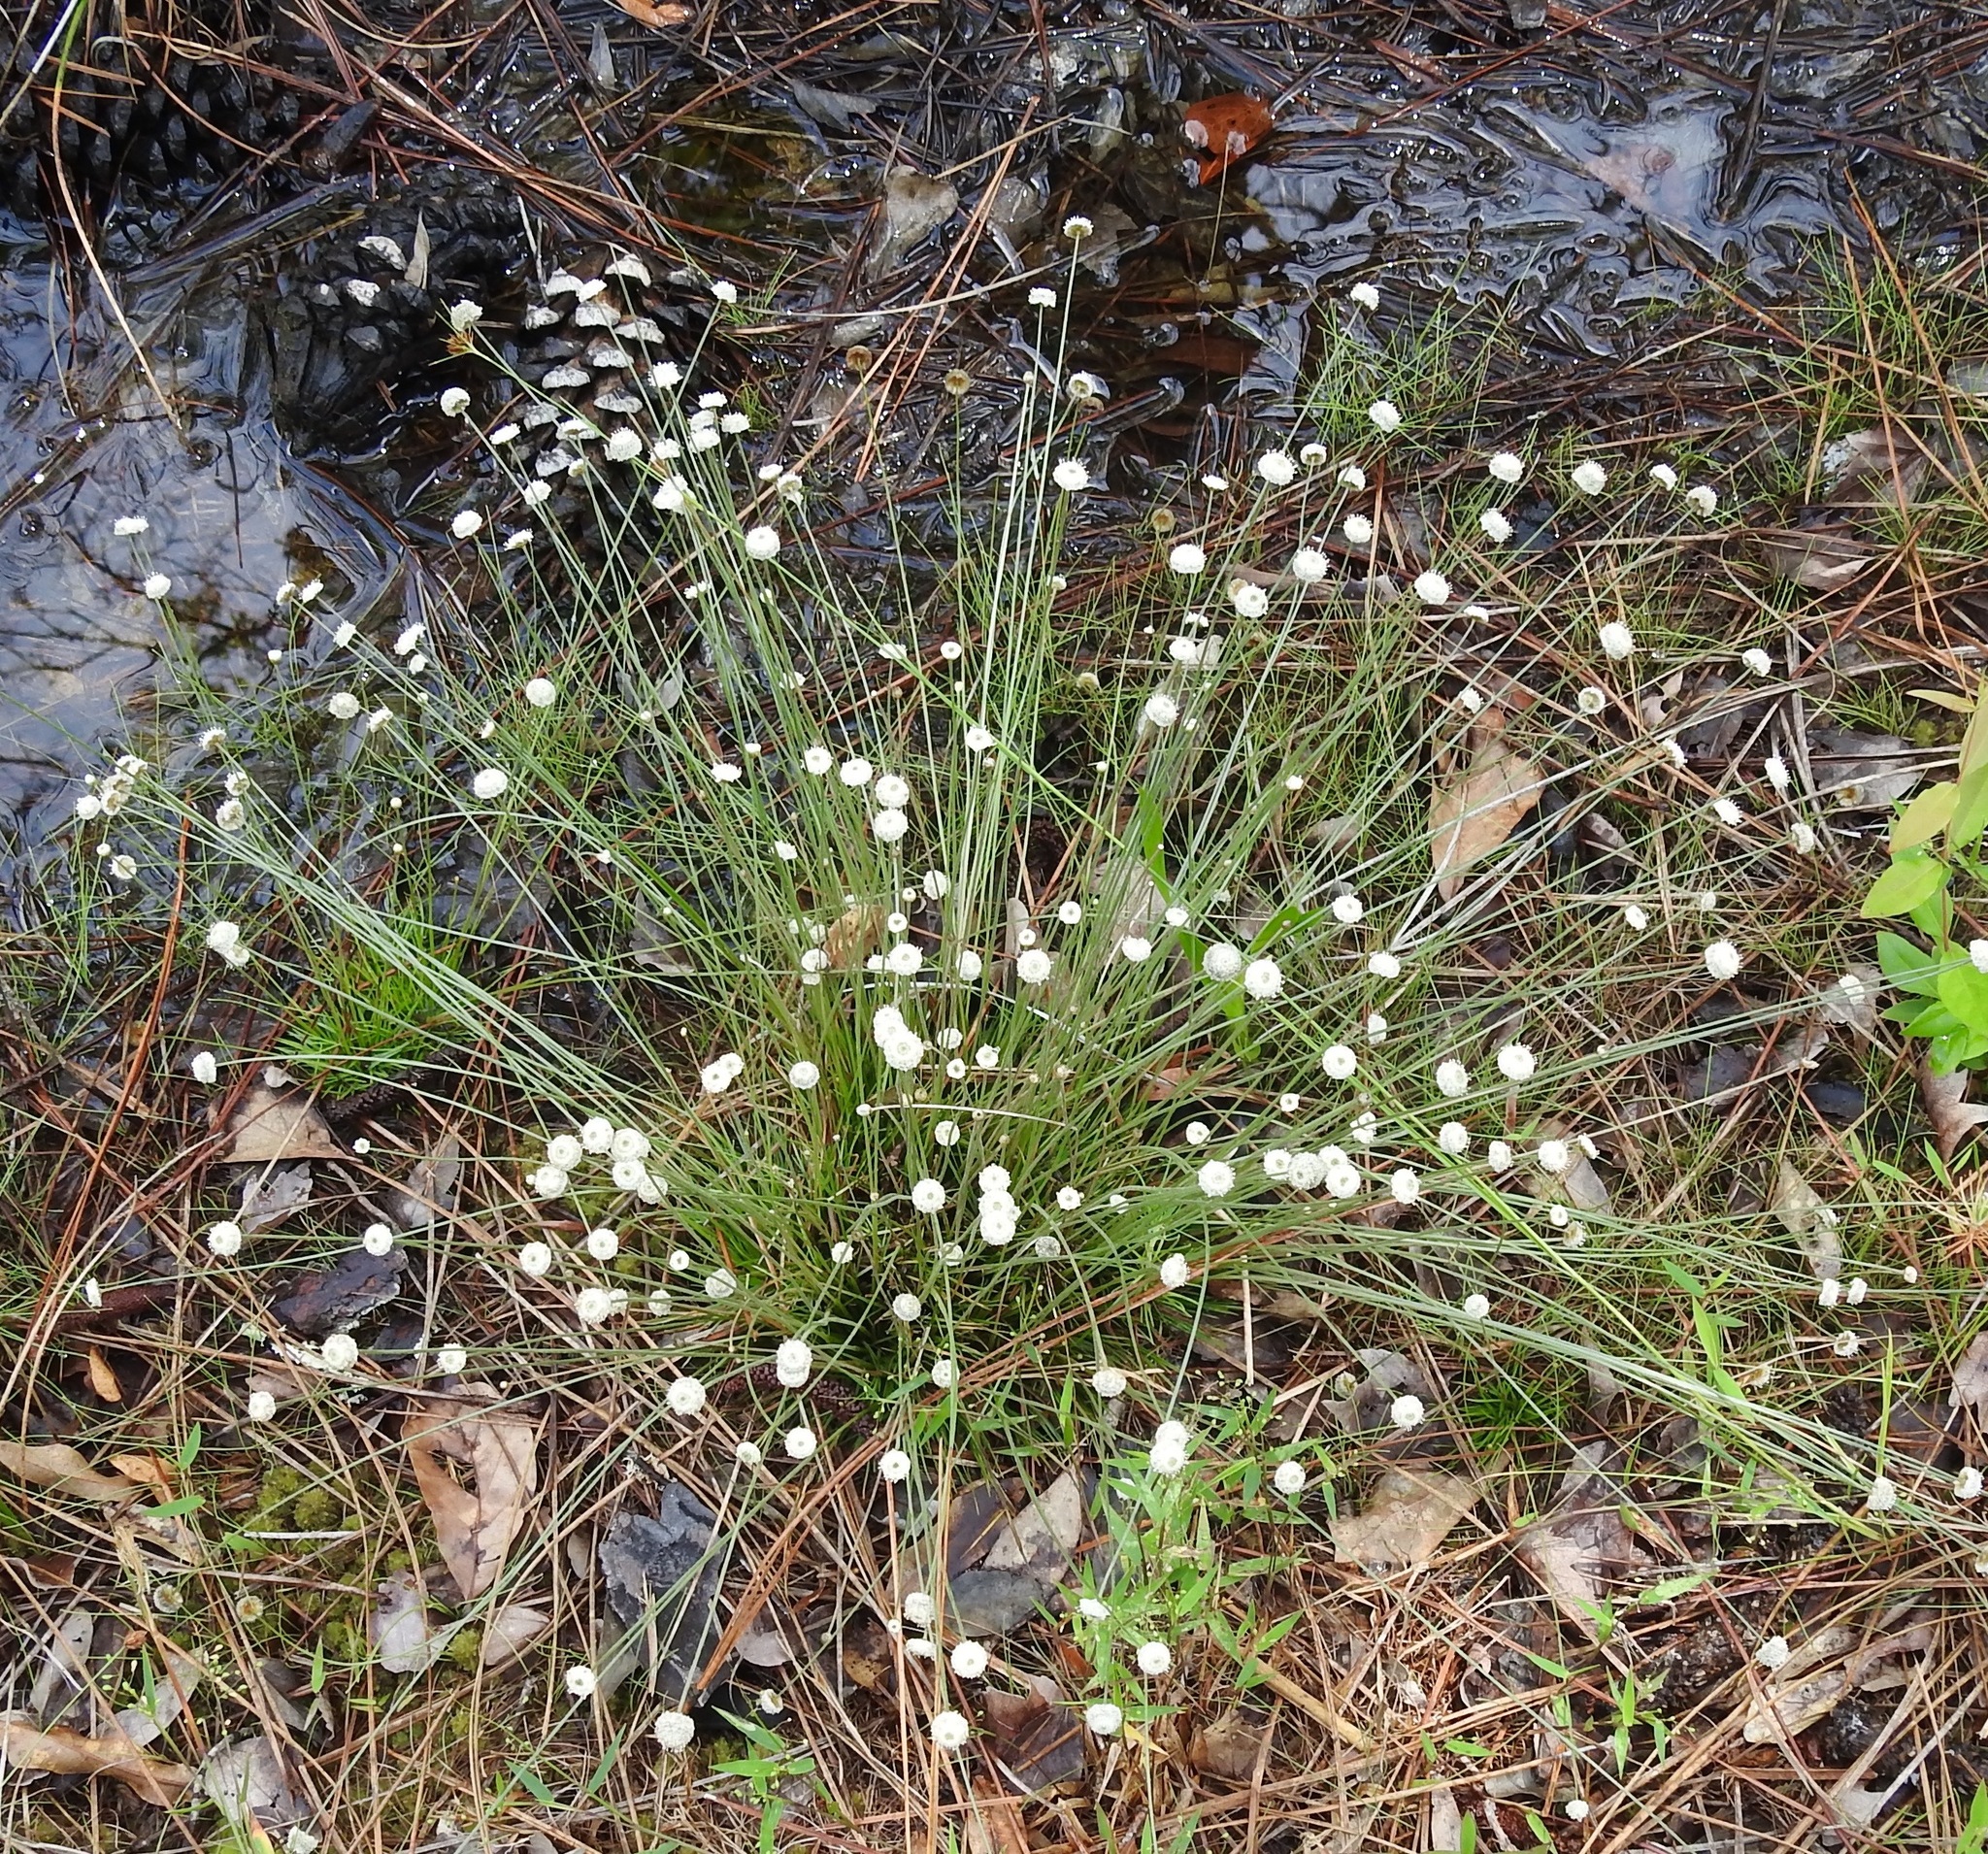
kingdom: Plantae
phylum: Tracheophyta
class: Liliopsida
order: Poales
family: Eriocaulaceae
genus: Syngonanthus
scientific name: Syngonanthus flavidulus
